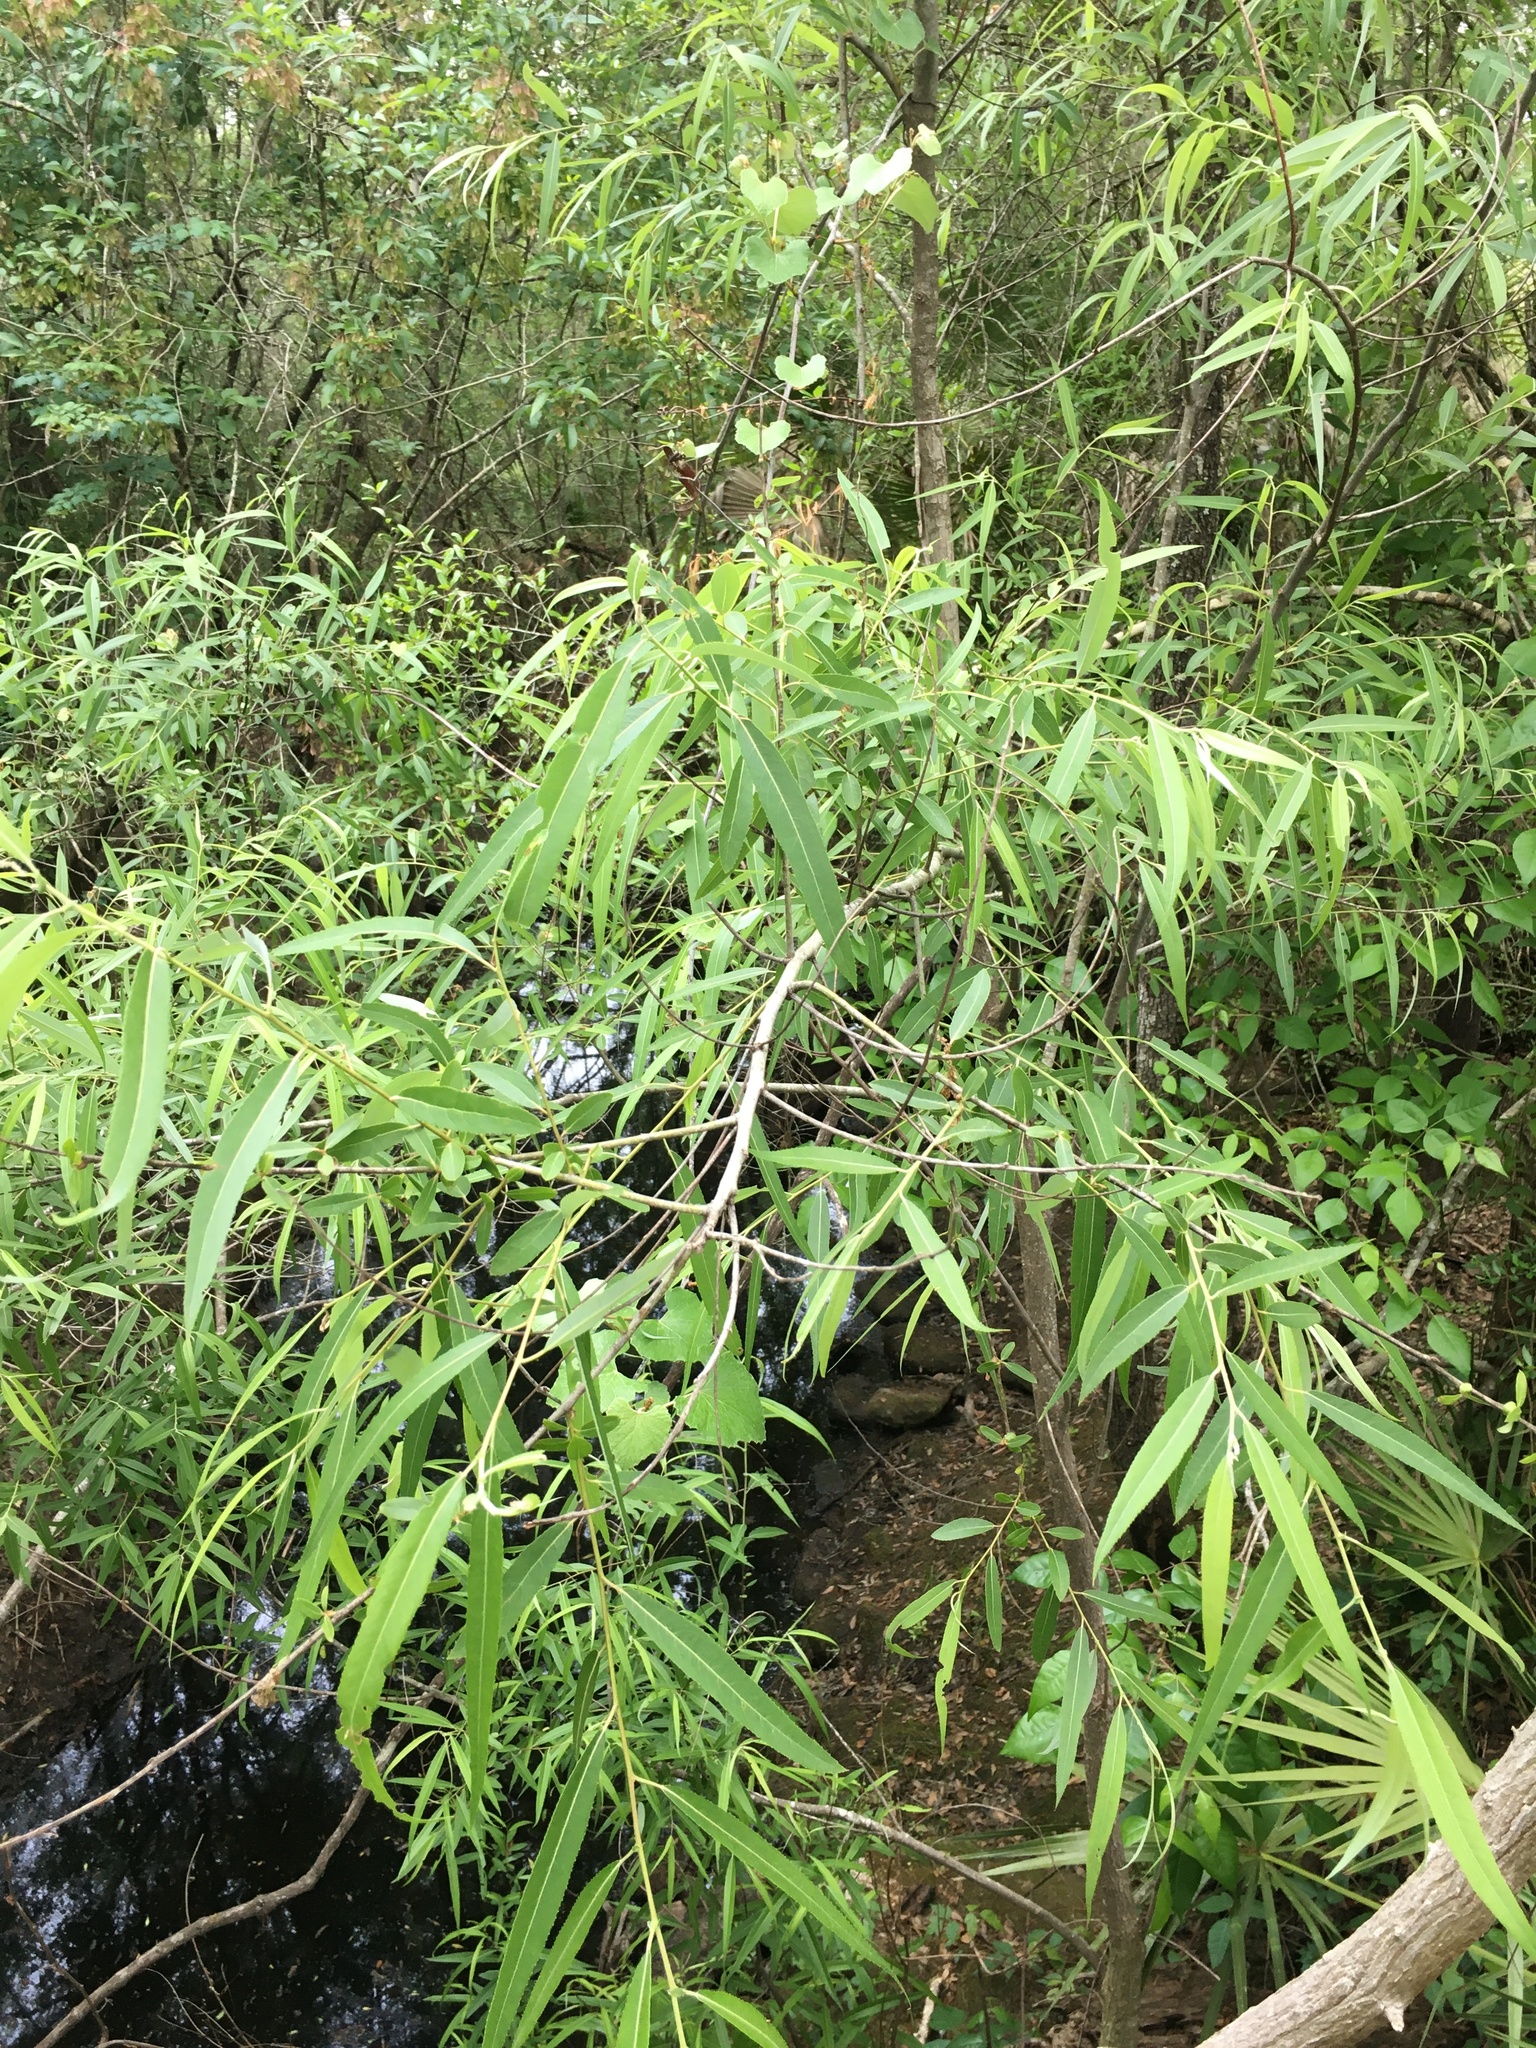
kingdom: Plantae
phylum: Tracheophyta
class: Magnoliopsida
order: Malpighiales
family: Salicaceae
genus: Salix
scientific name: Salix caroliniana
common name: Carolina willow
